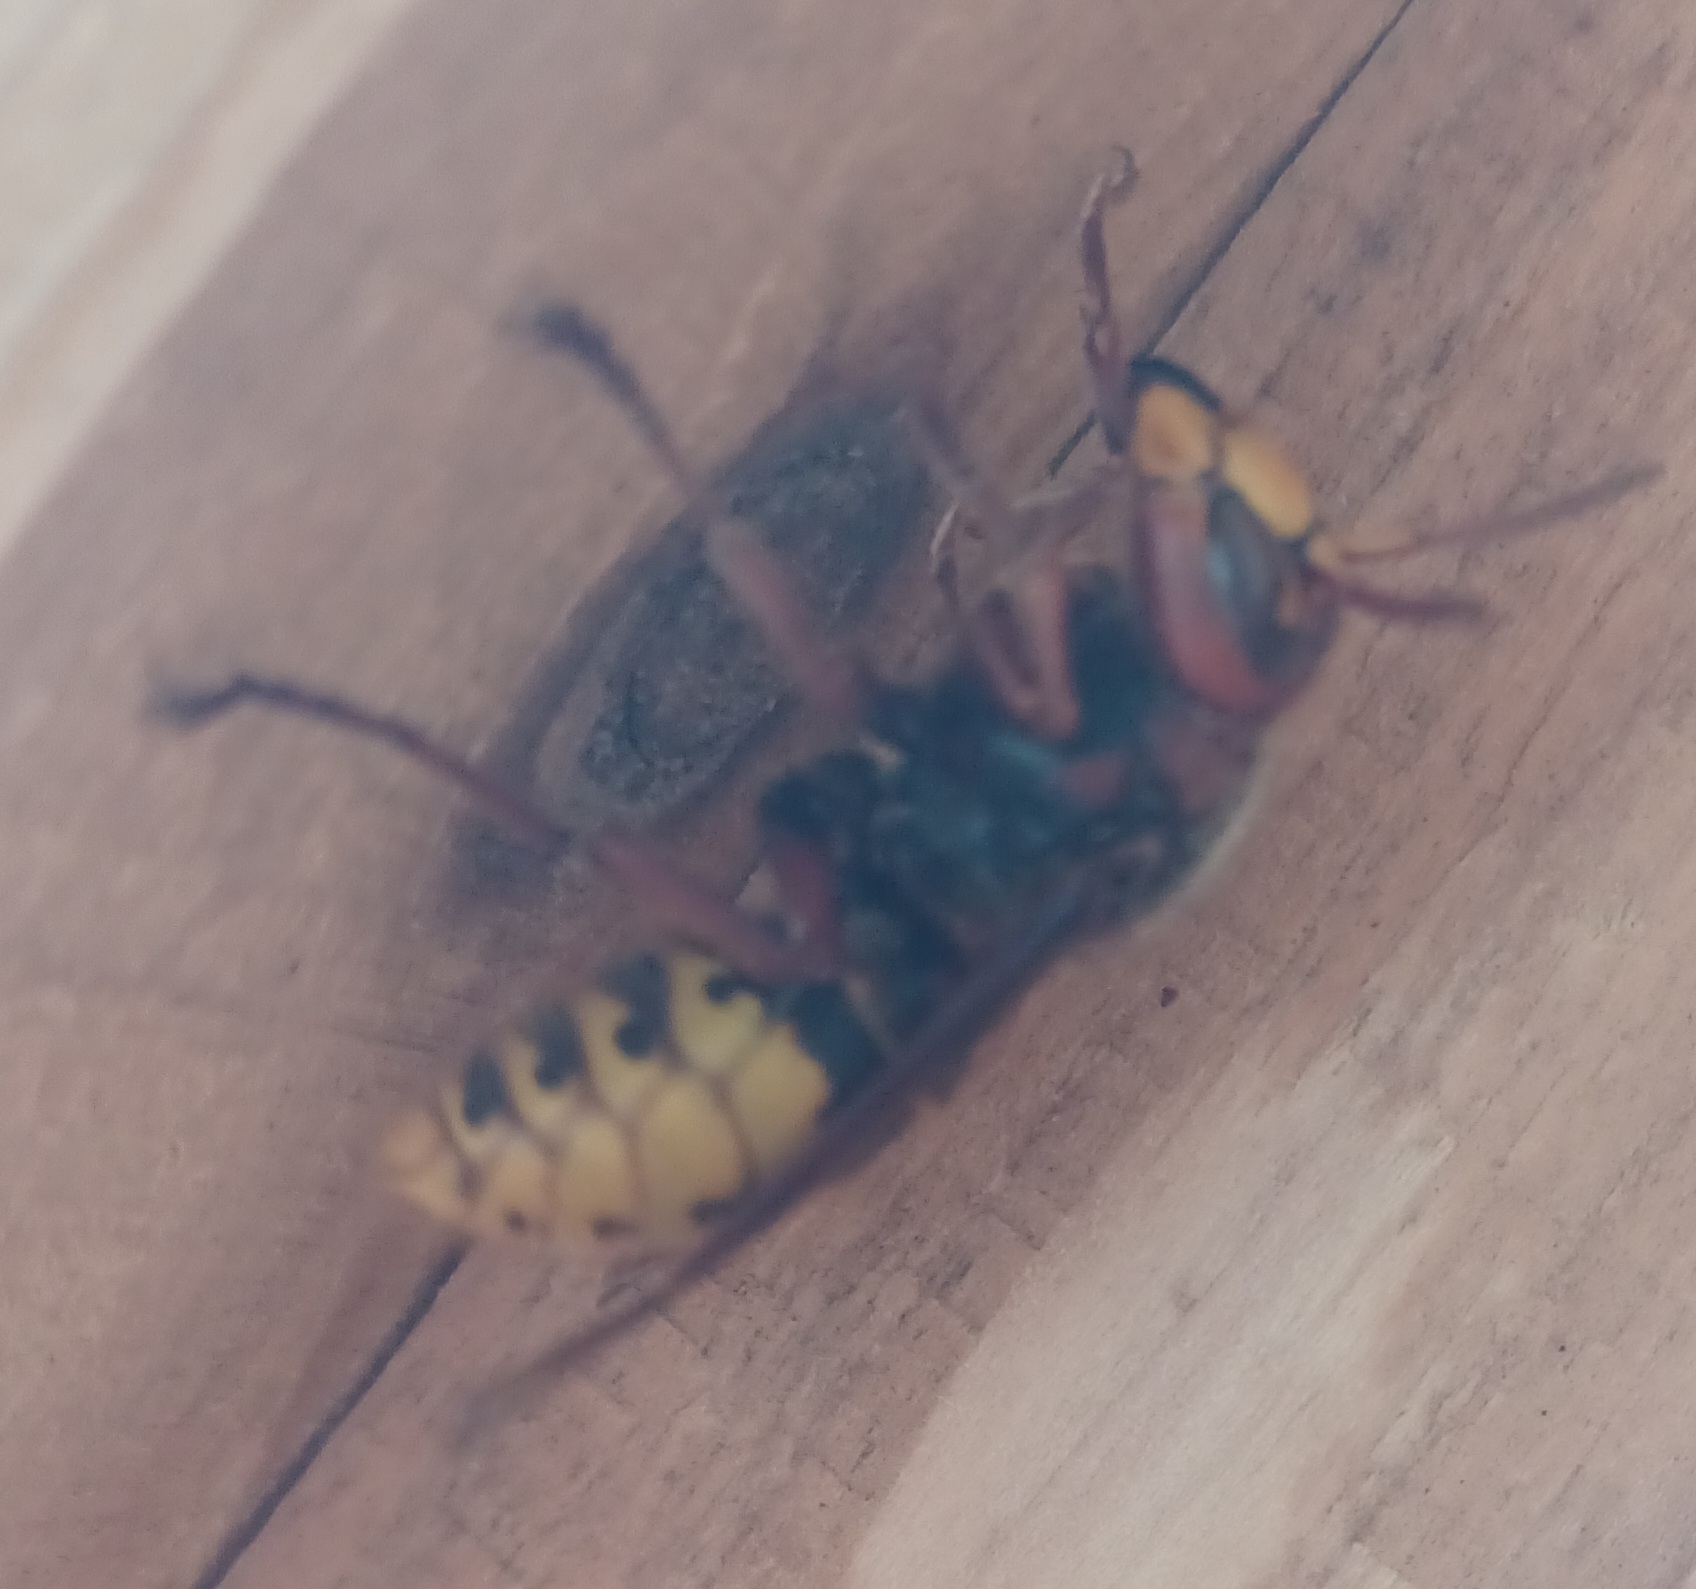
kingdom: Animalia
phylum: Arthropoda
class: Insecta
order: Hymenoptera
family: Vespidae
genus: Vespa
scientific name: Vespa crabro
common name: Hornet
